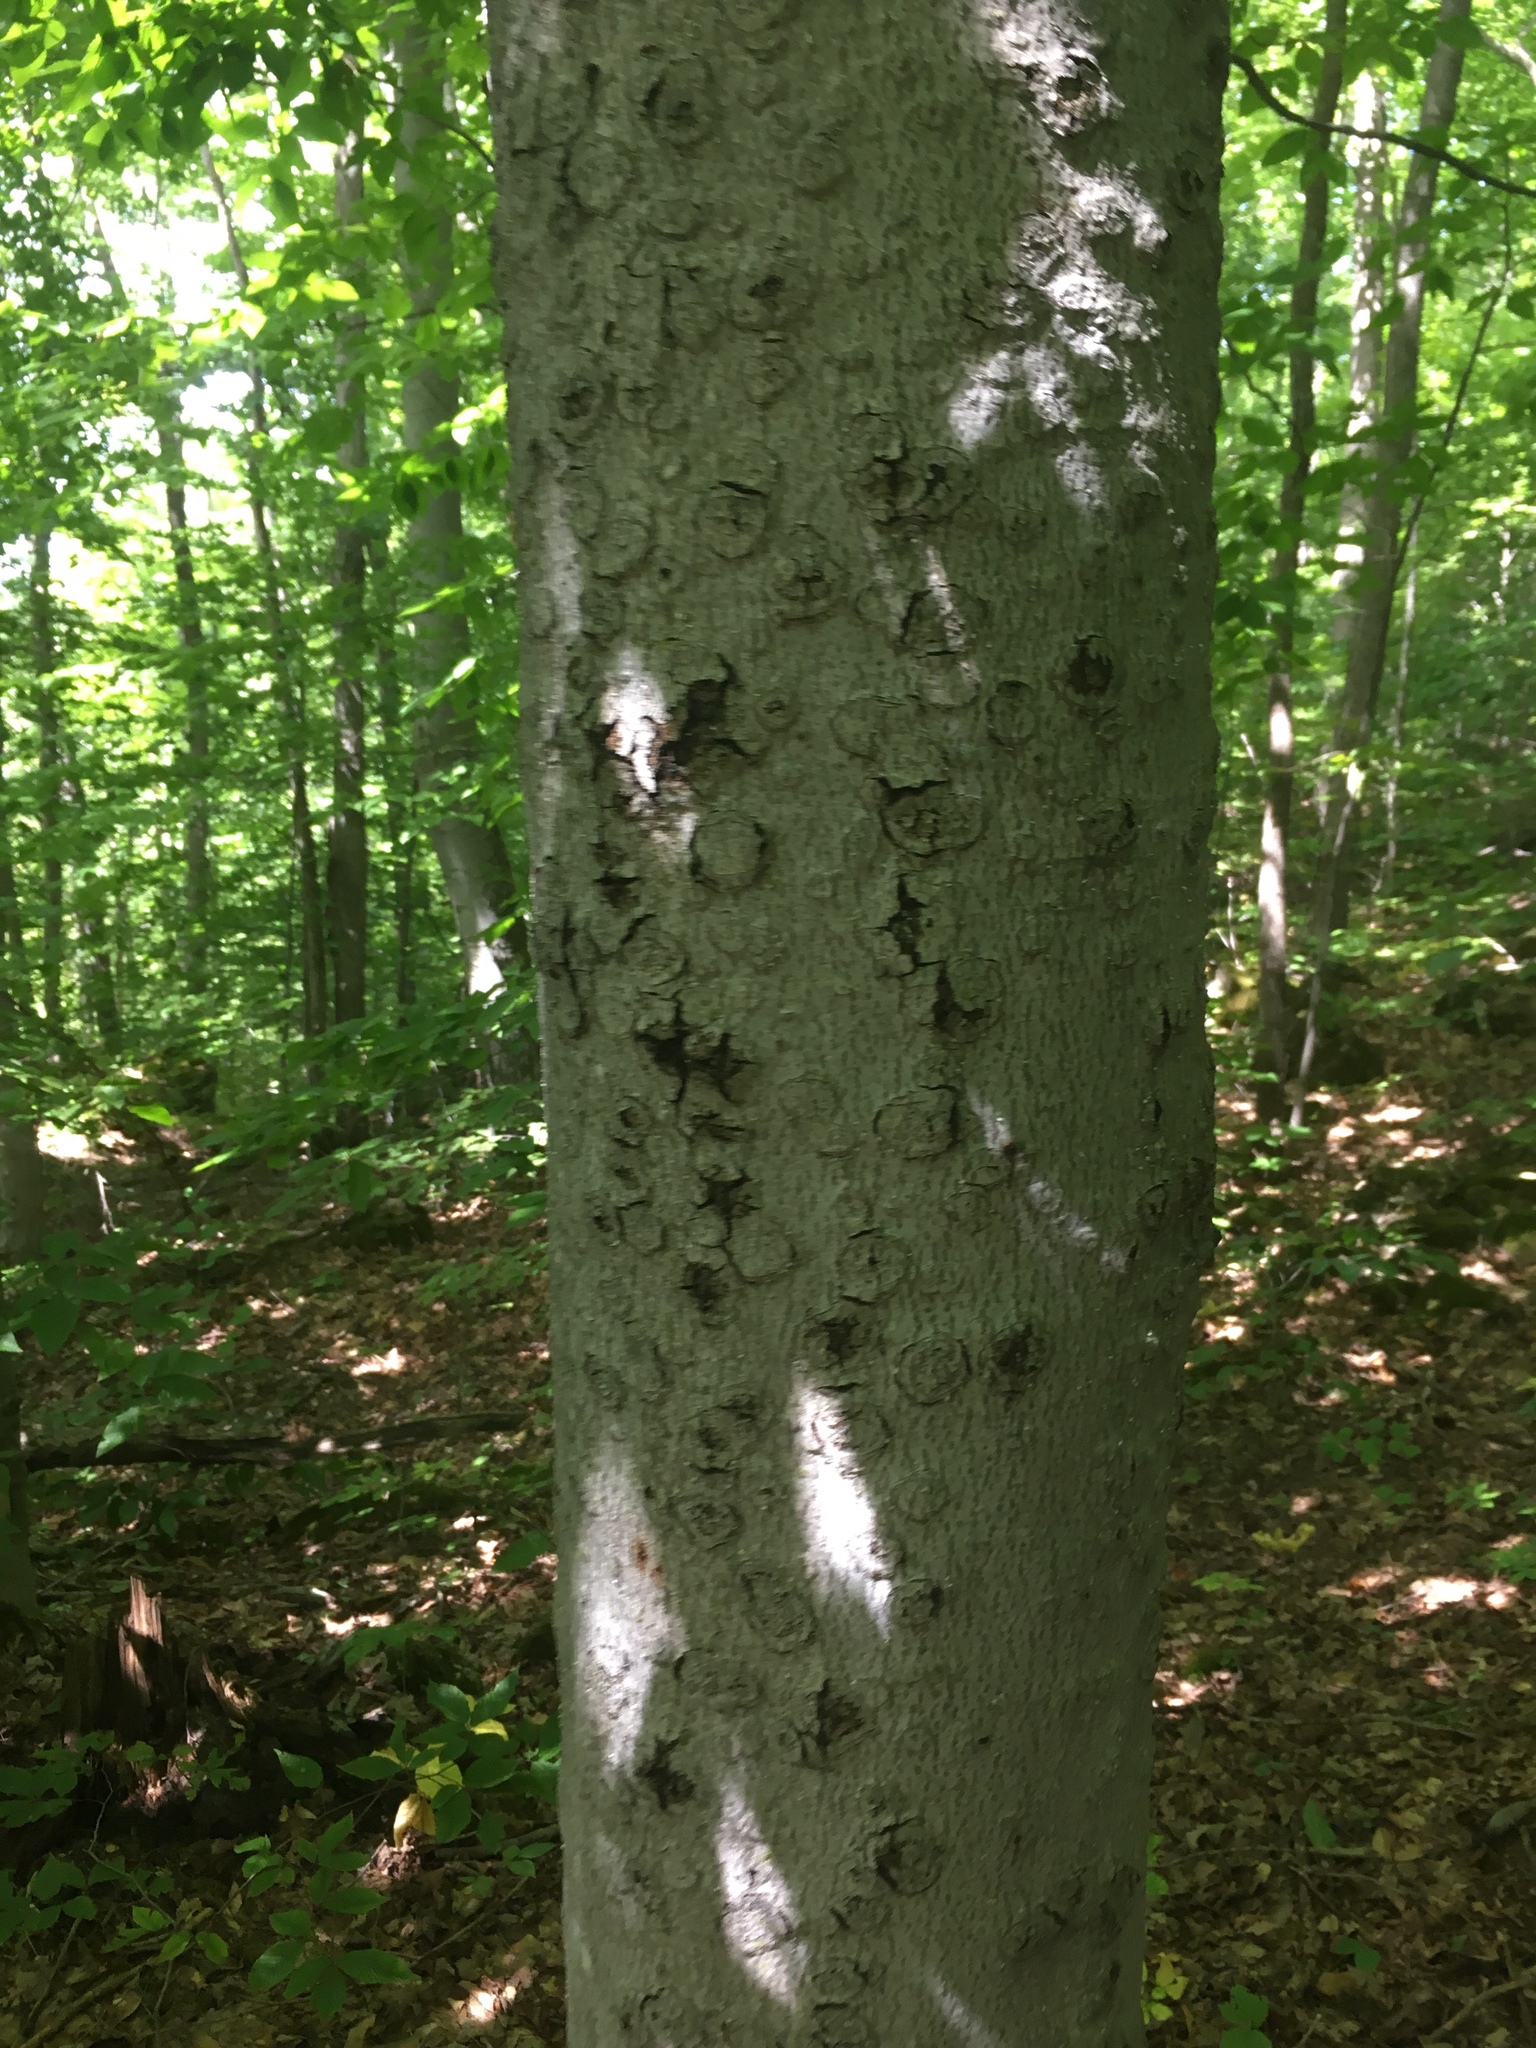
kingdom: Plantae
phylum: Tracheophyta
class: Magnoliopsida
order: Fagales
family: Fagaceae
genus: Fagus
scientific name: Fagus grandifolia
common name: American beech
